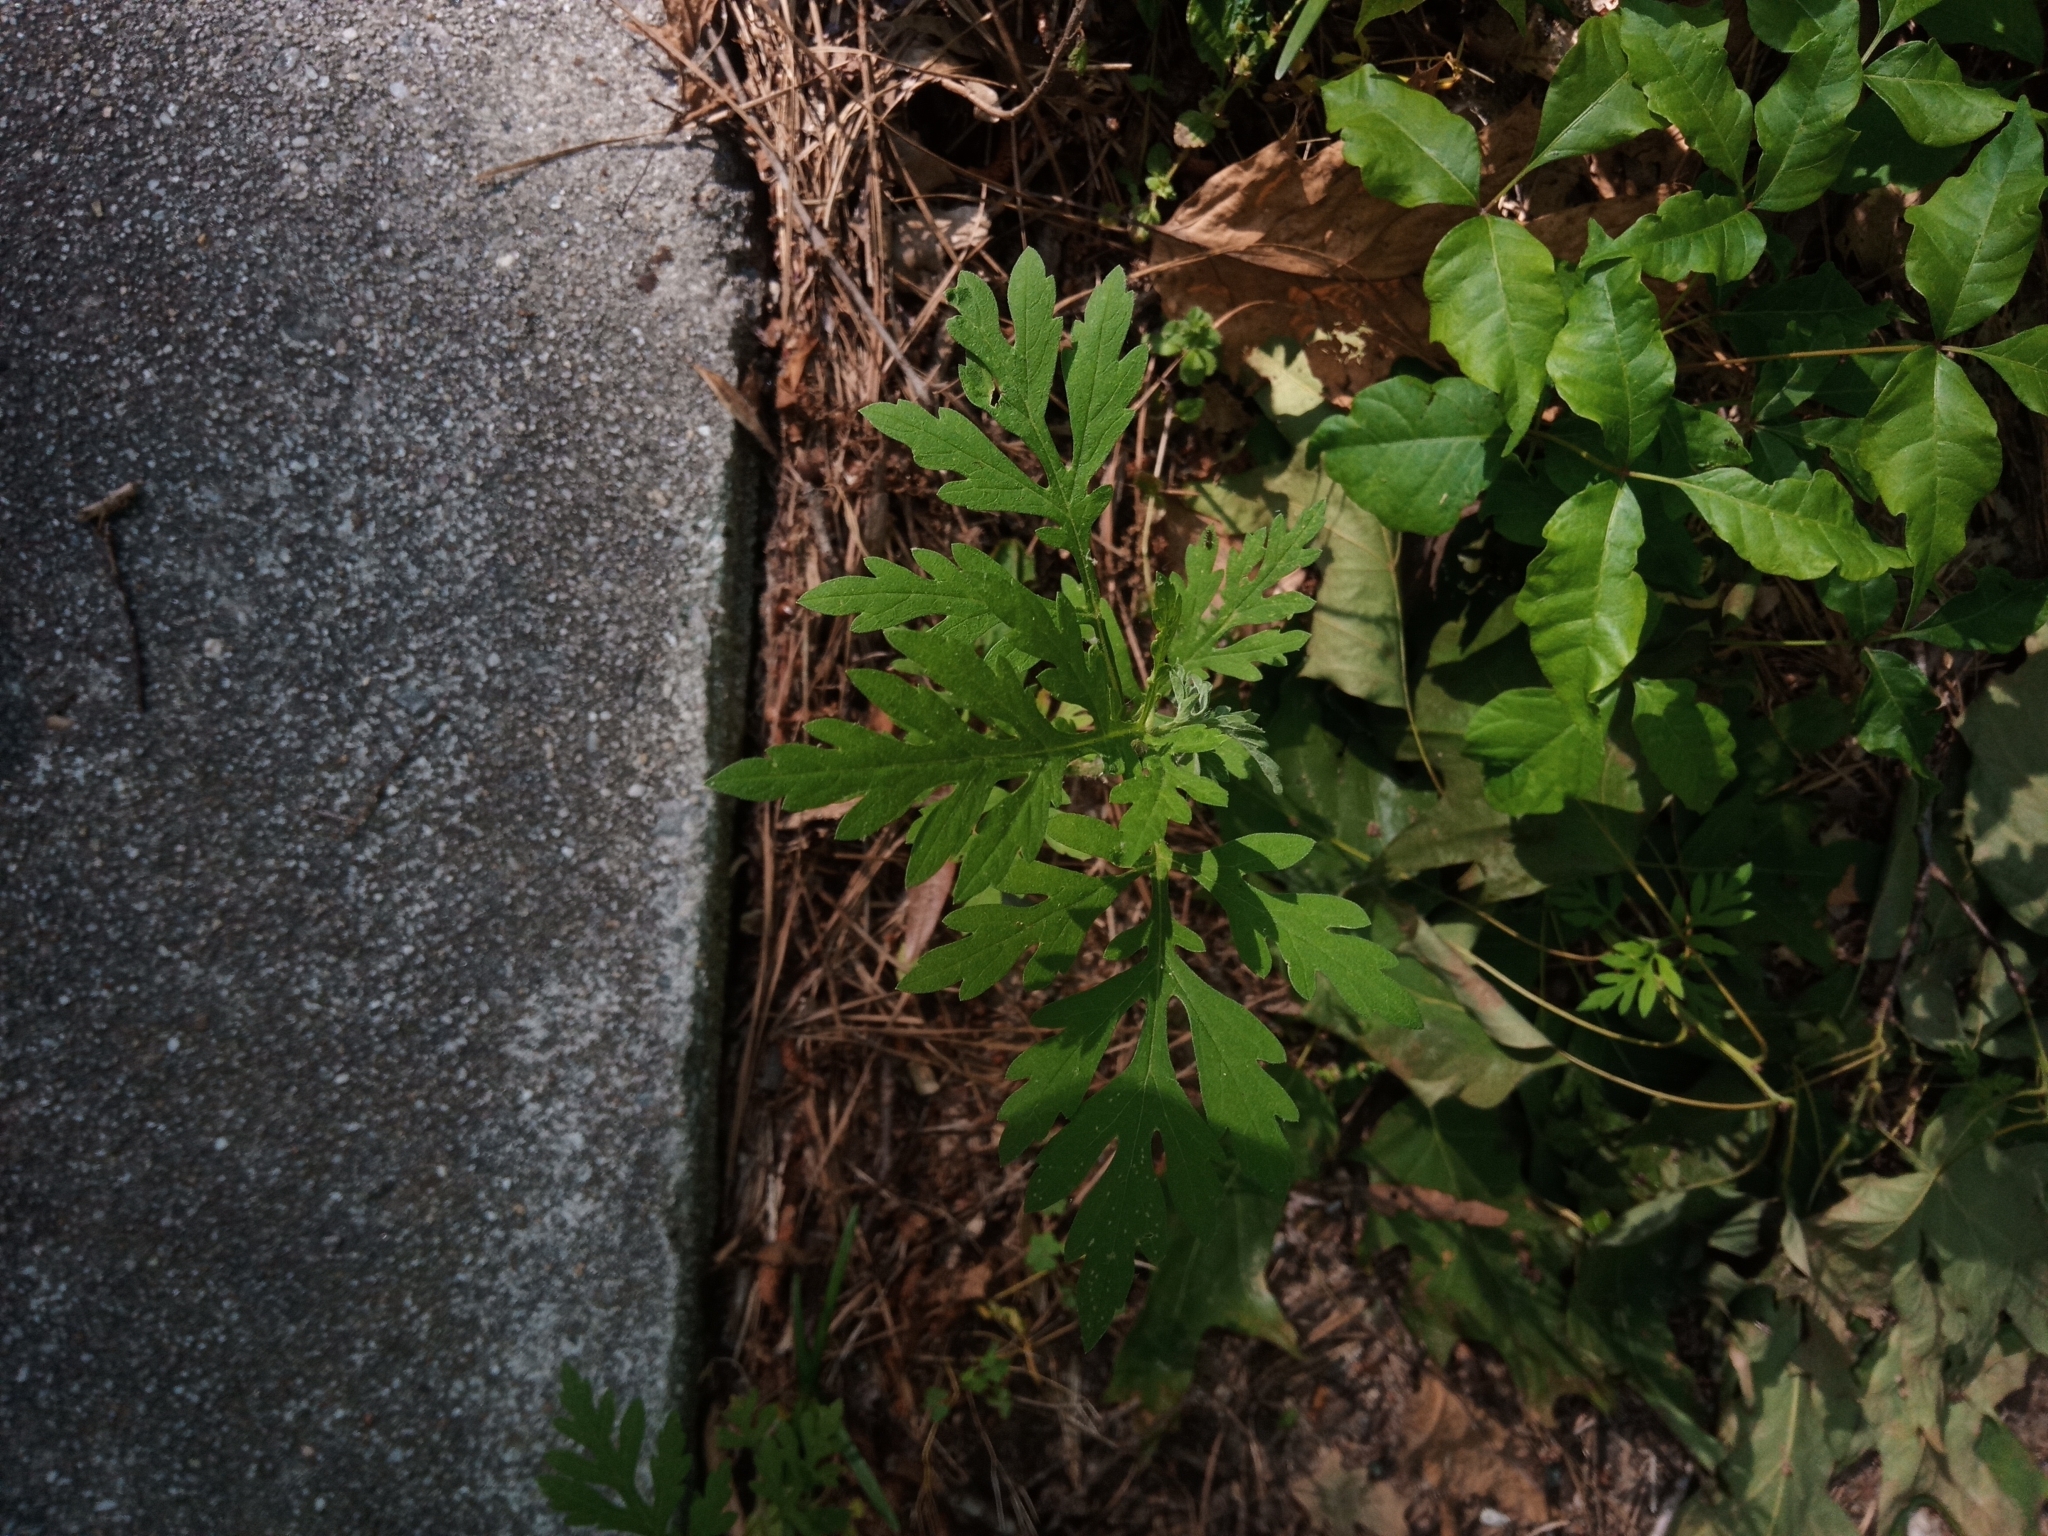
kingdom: Plantae
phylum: Tracheophyta
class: Magnoliopsida
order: Asterales
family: Asteraceae
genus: Ambrosia
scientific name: Ambrosia artemisiifolia
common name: Annual ragweed
